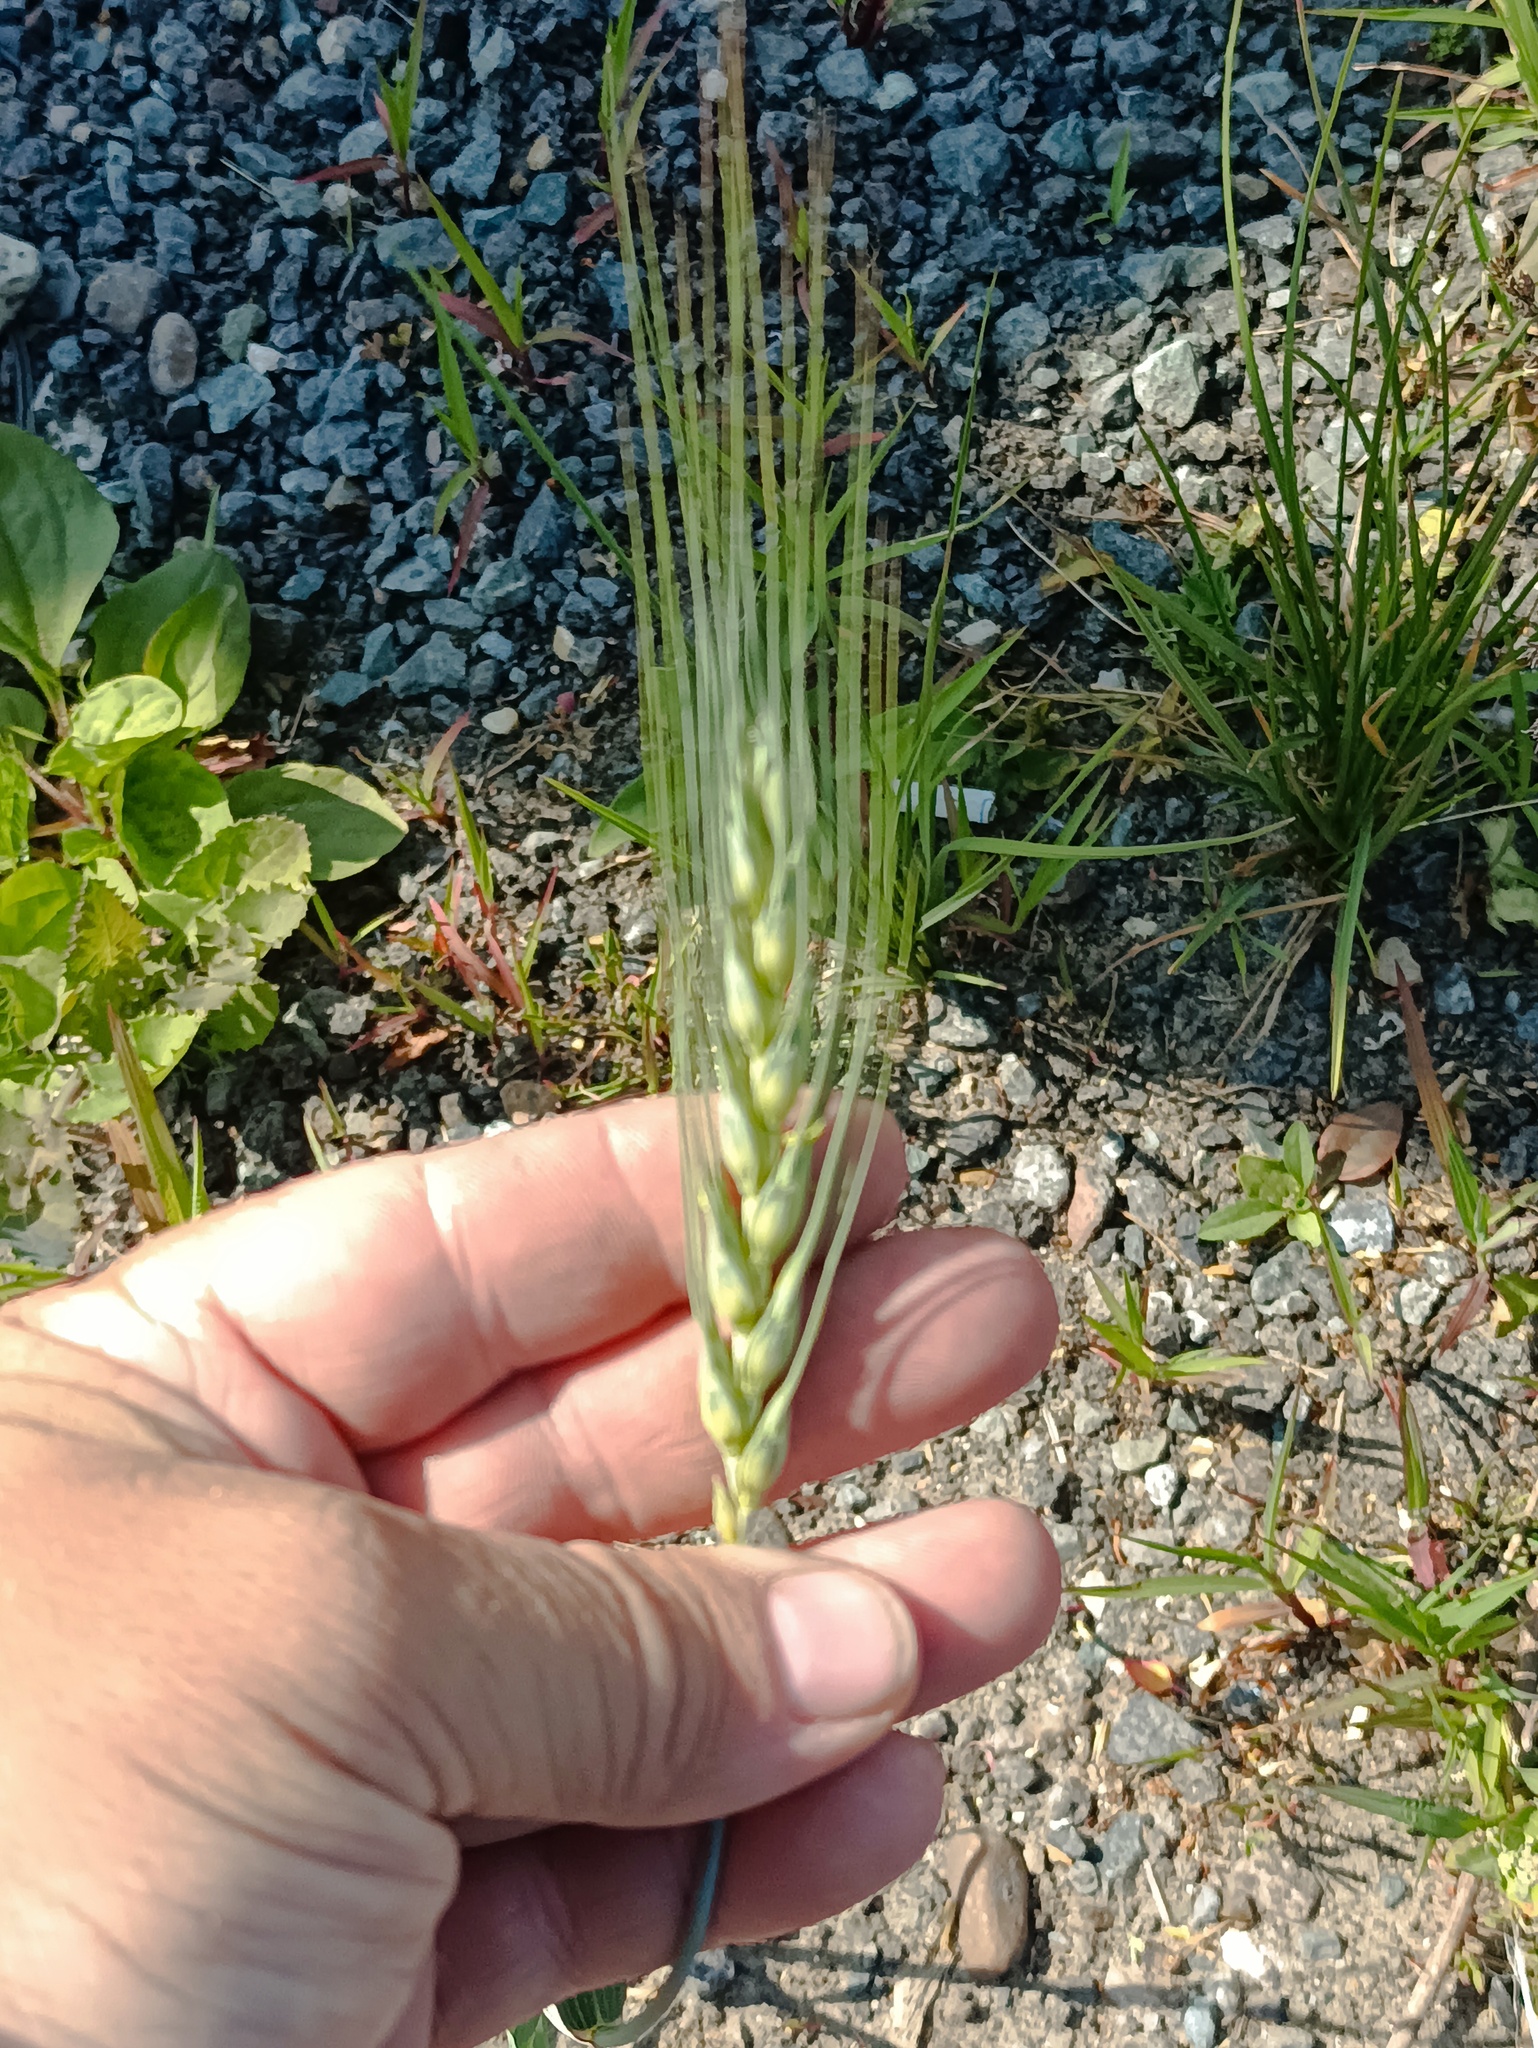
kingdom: Plantae
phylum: Tracheophyta
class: Liliopsida
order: Poales
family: Poaceae
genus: Triticum
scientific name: Triticum aestivum
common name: Common wheat
